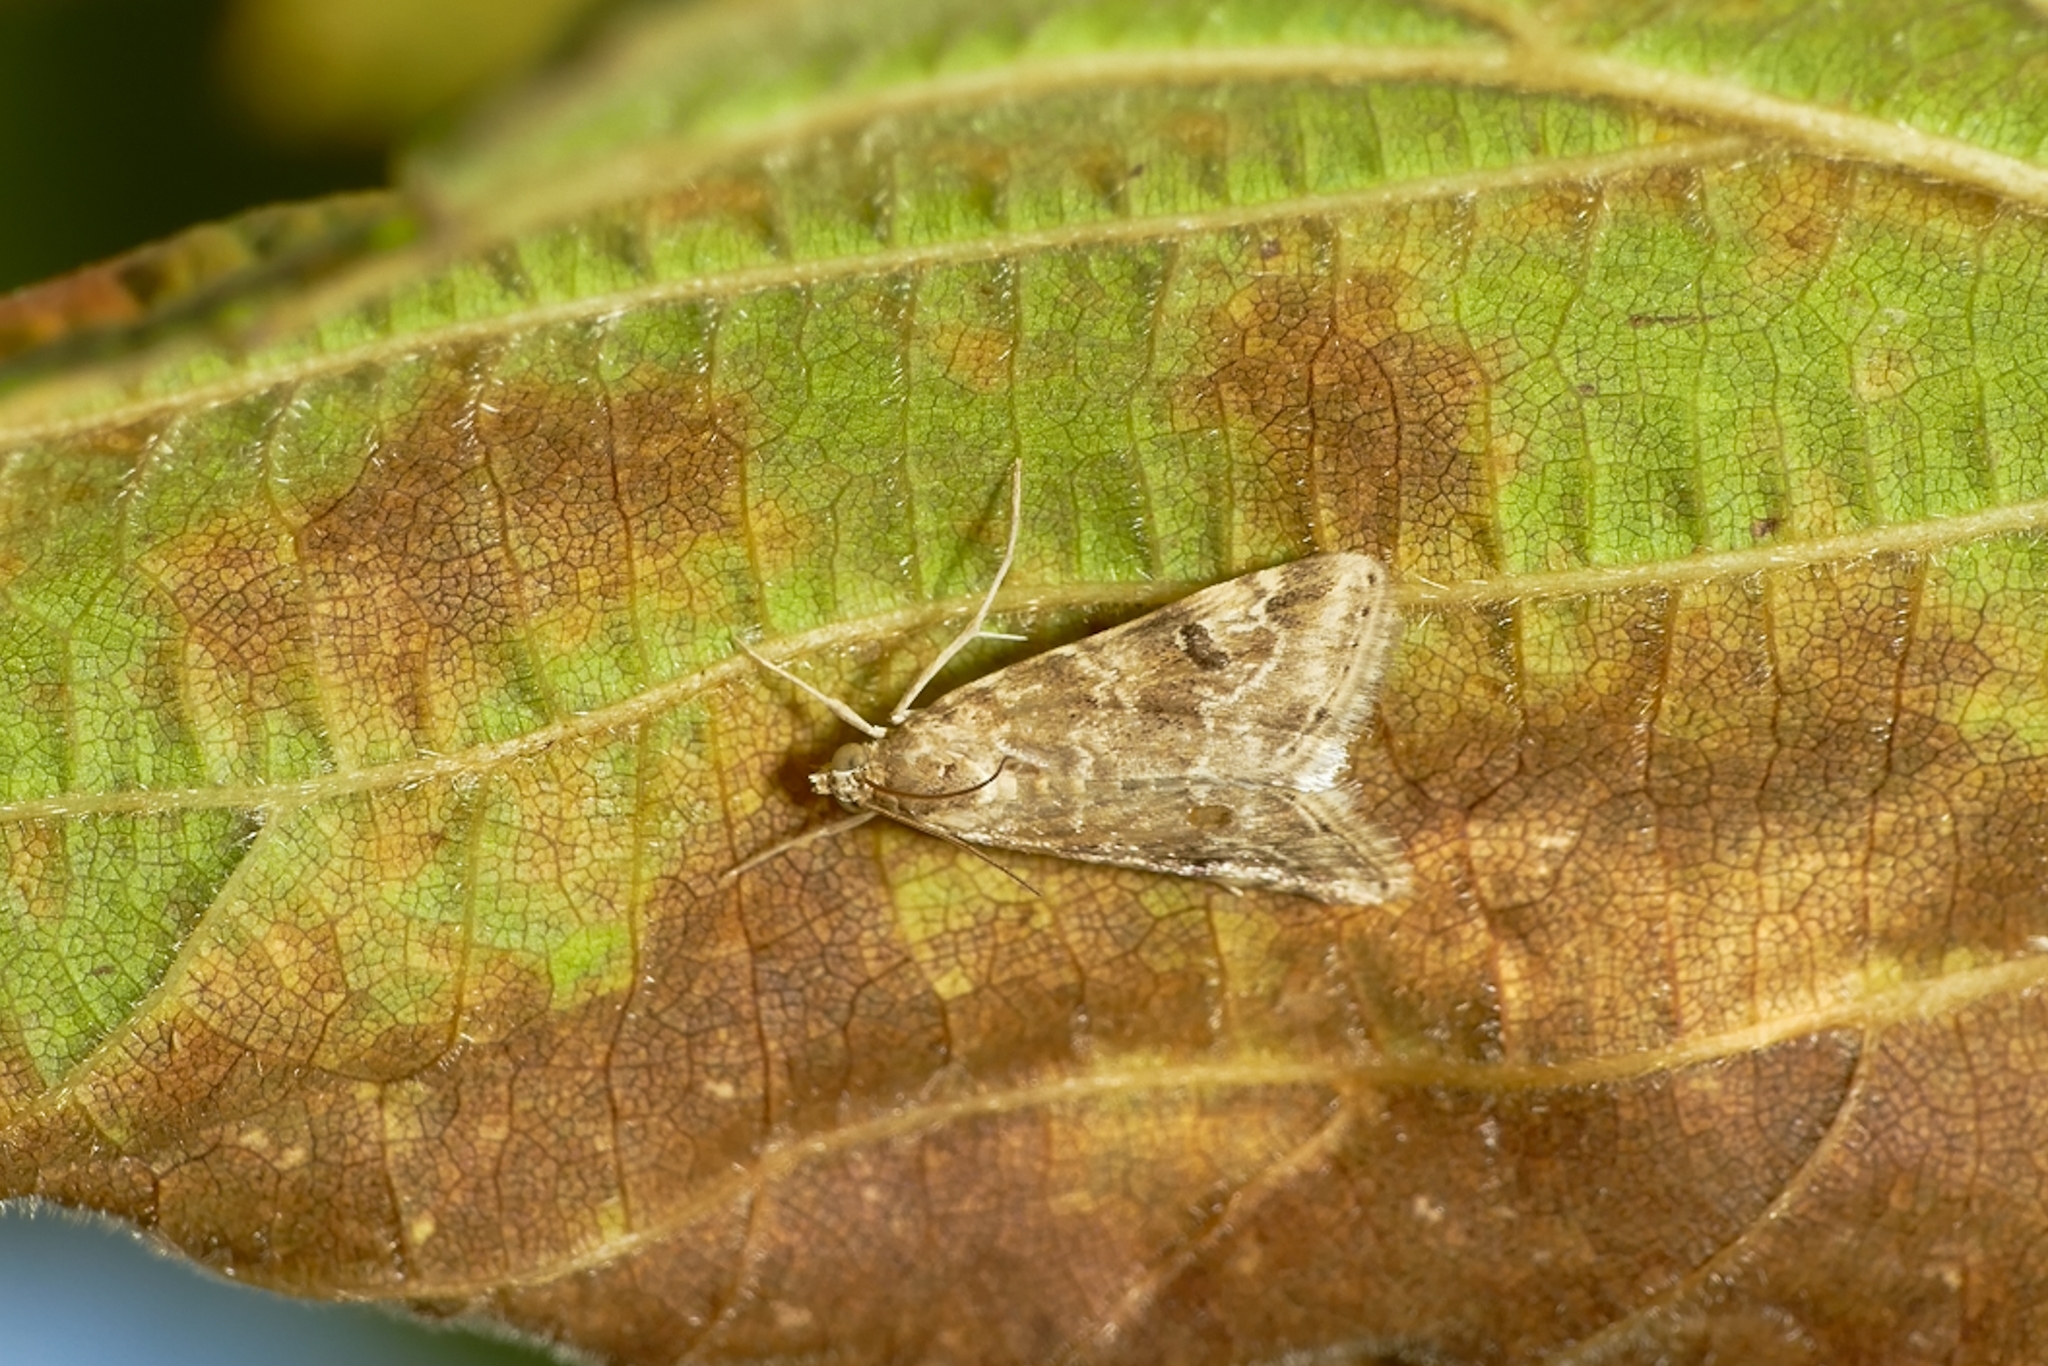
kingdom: Animalia
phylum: Arthropoda
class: Insecta
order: Lepidoptera
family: Crambidae
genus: Hellula
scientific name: Hellula undalis
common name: Cabbage webworm
